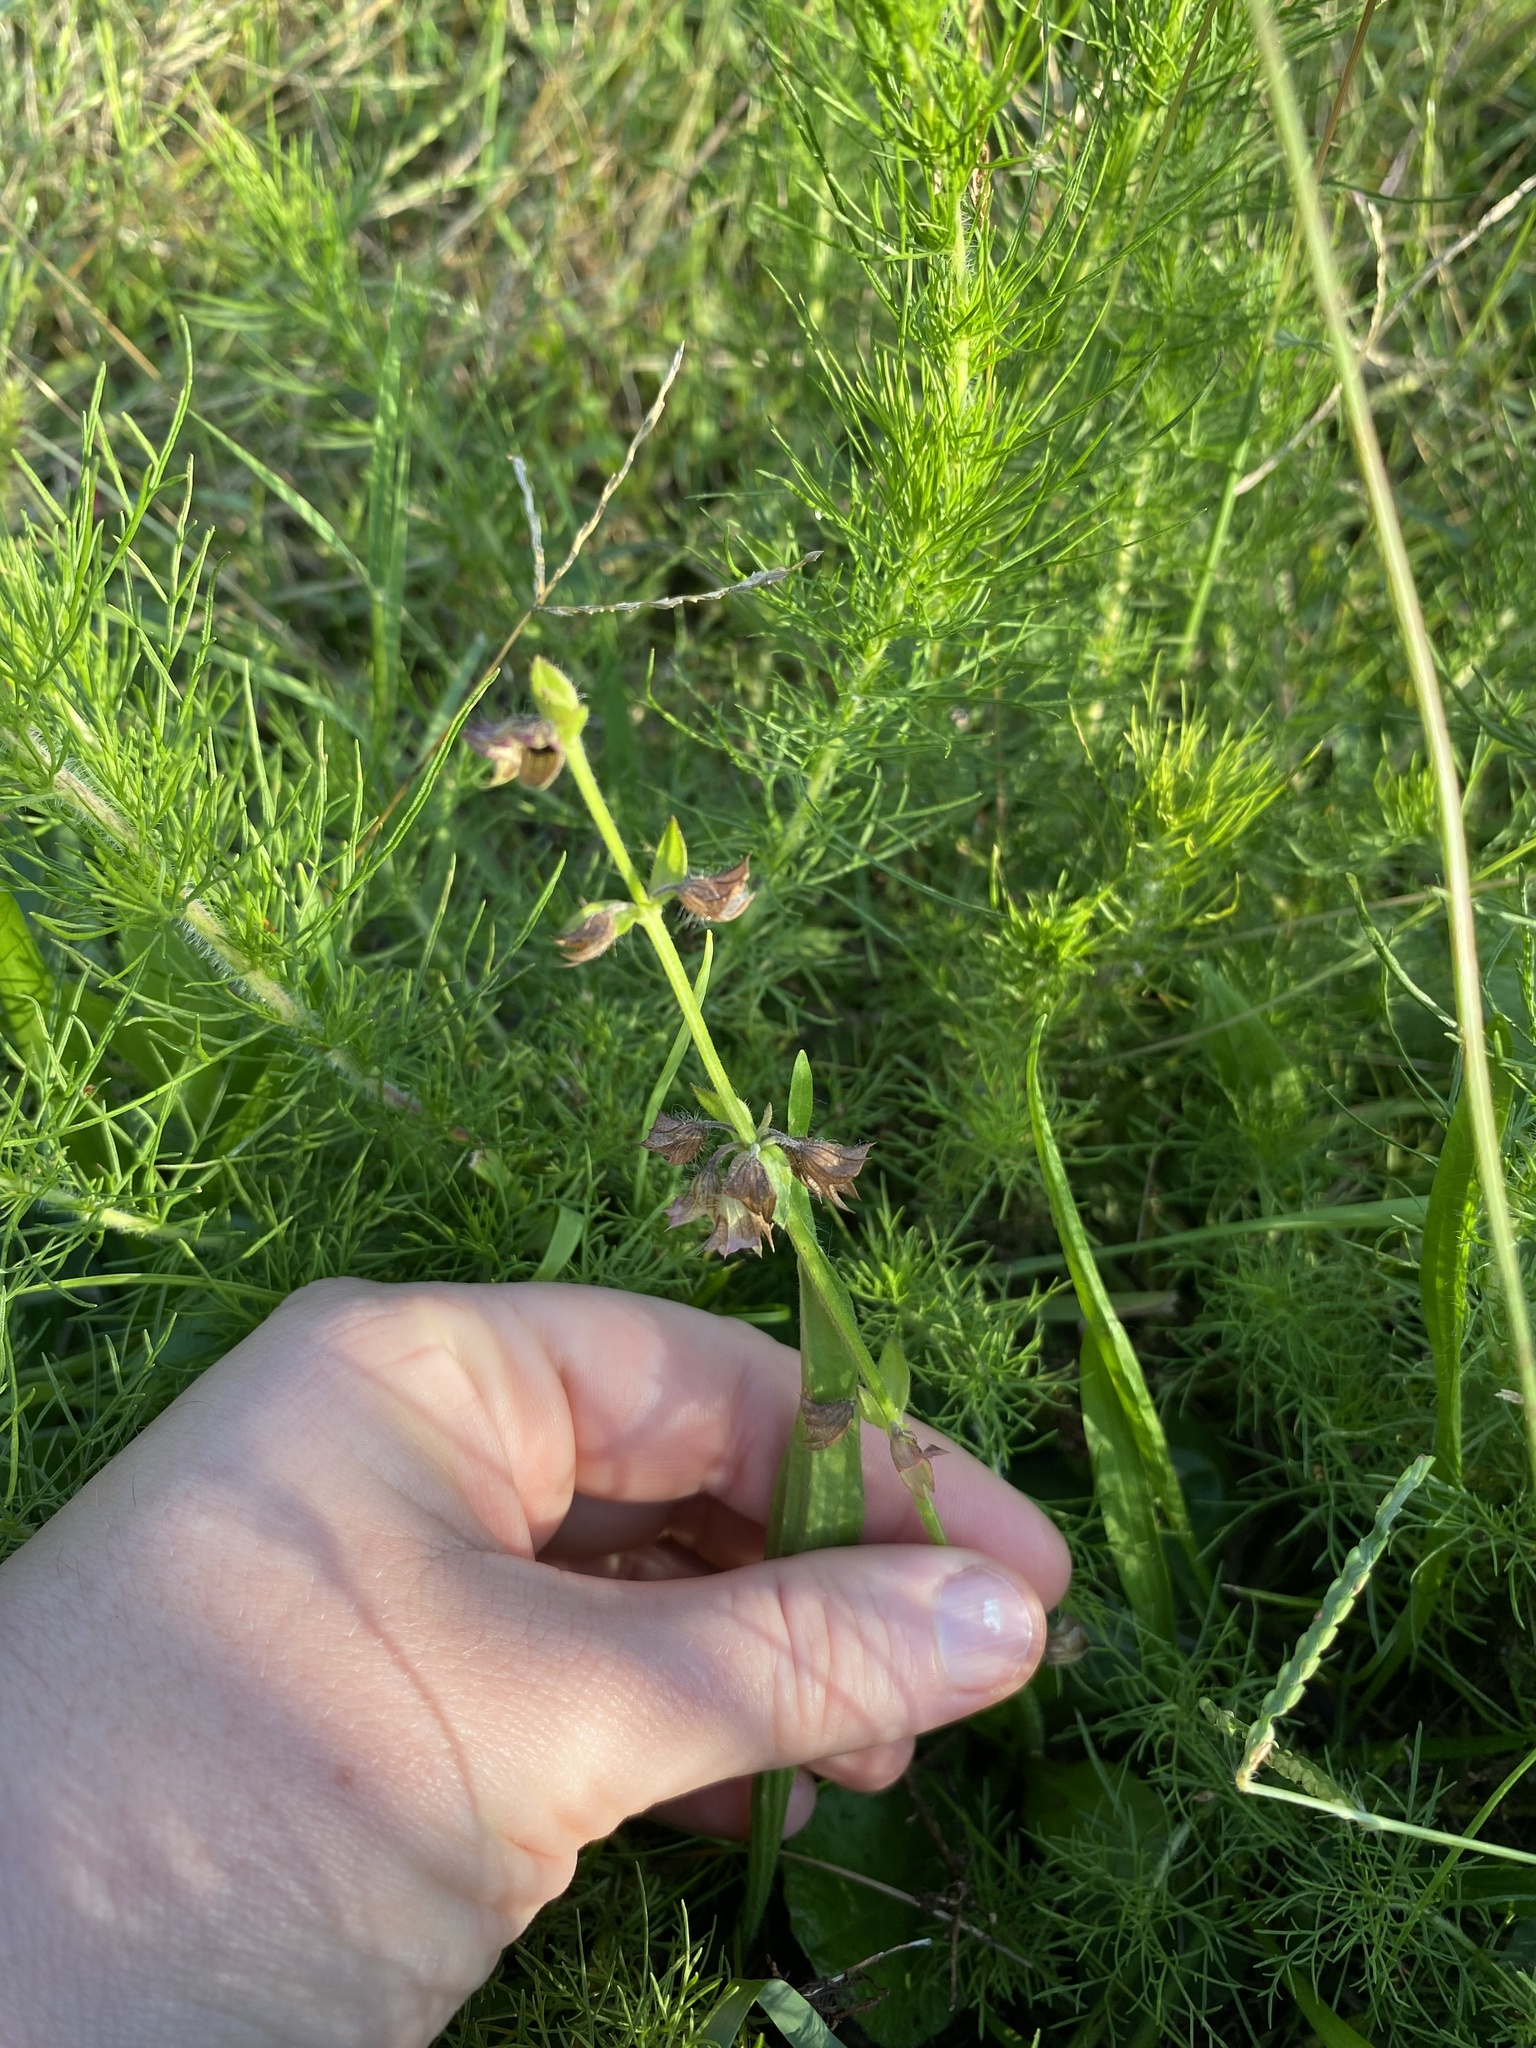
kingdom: Plantae
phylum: Tracheophyta
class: Magnoliopsida
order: Lamiales
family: Lamiaceae
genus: Salvia
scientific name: Salvia lyrata
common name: Cancerweed
